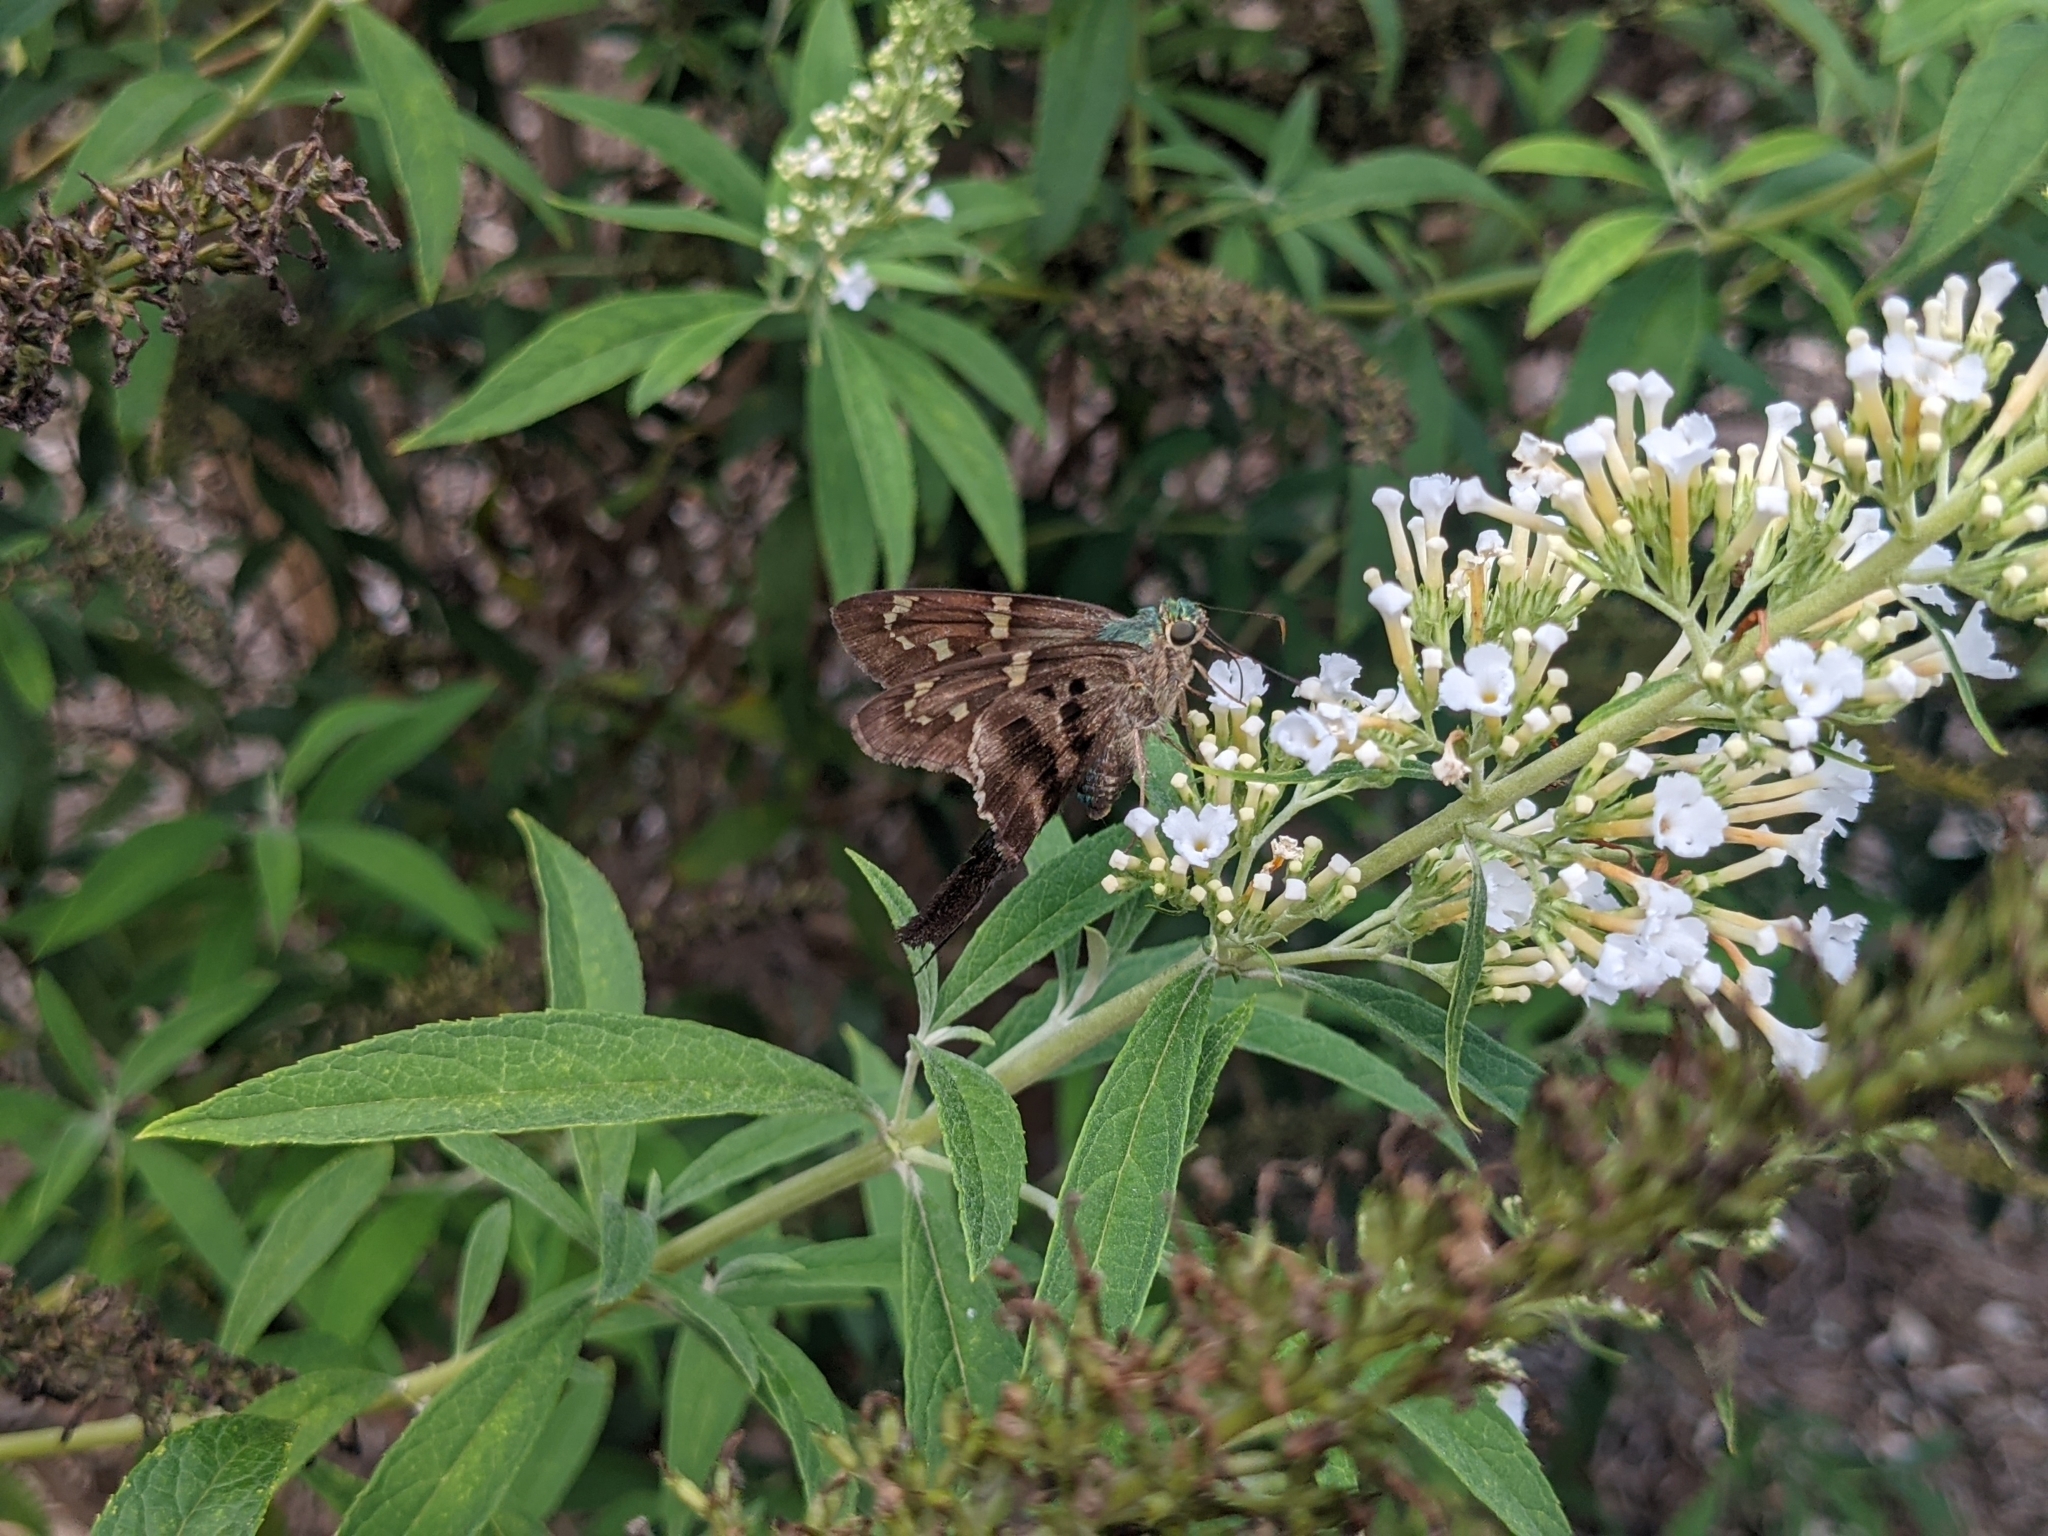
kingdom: Animalia
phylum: Arthropoda
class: Insecta
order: Lepidoptera
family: Hesperiidae
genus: Urbanus
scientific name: Urbanus proteus
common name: Long-tailed skipper
